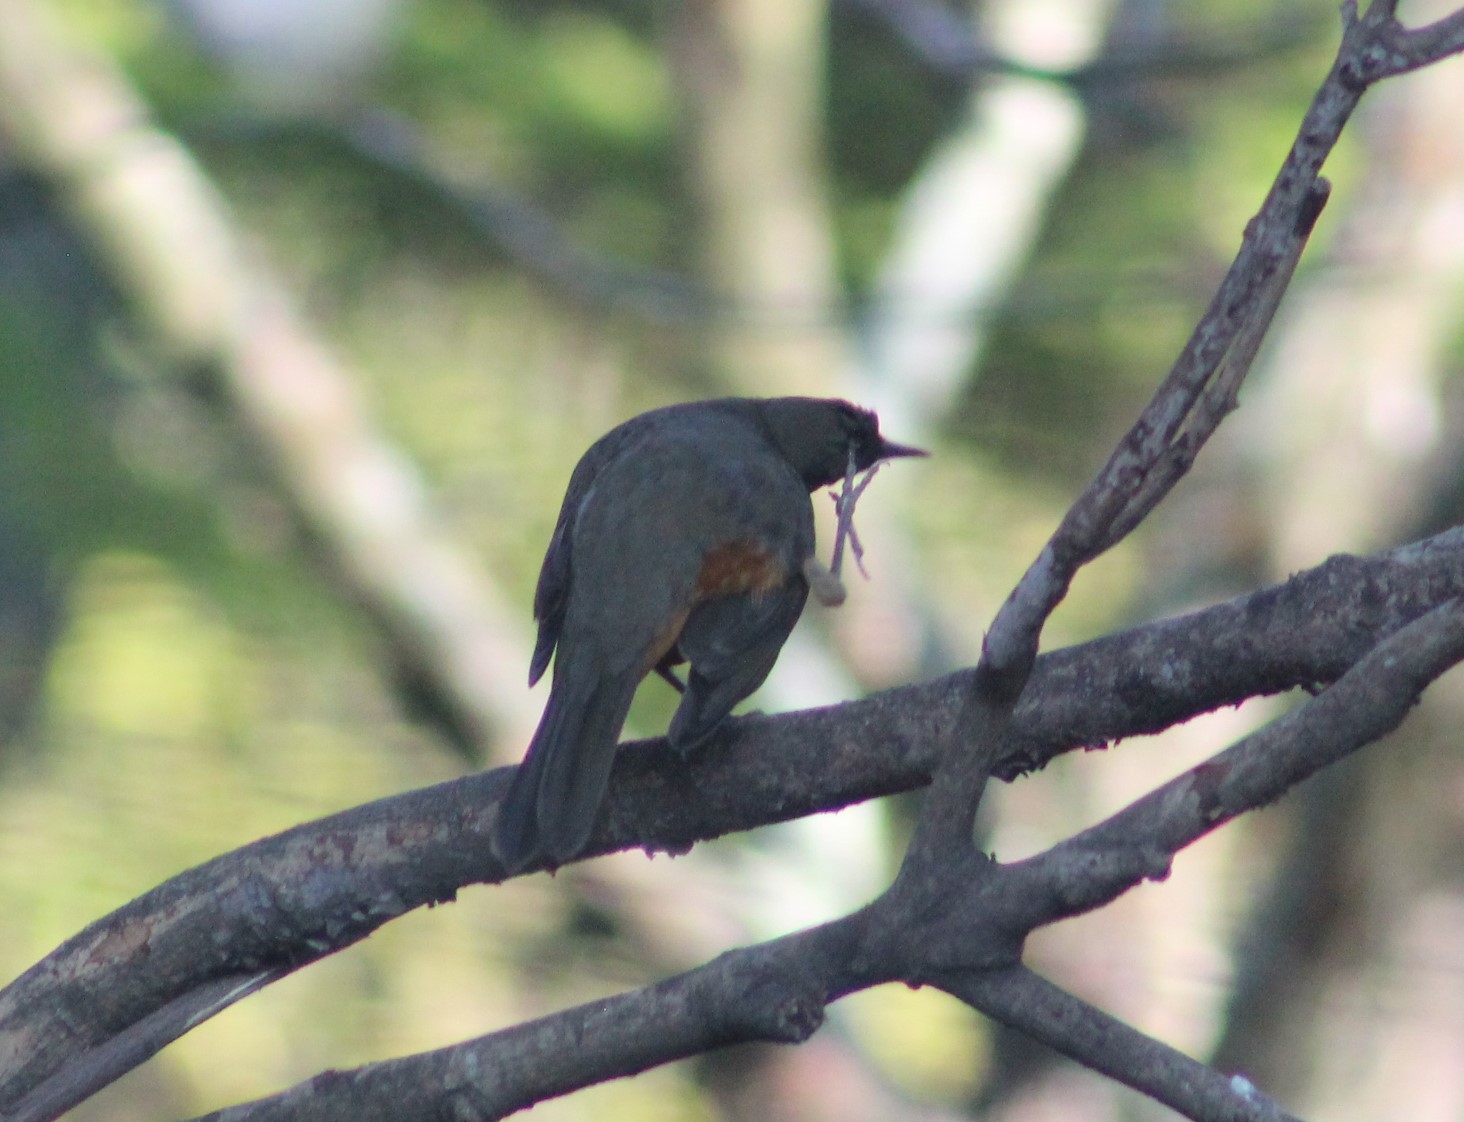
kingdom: Animalia
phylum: Chordata
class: Aves
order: Passeriformes
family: Turdidae
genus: Turdus
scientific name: Turdus rufiventris
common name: Rufous-bellied thrush
